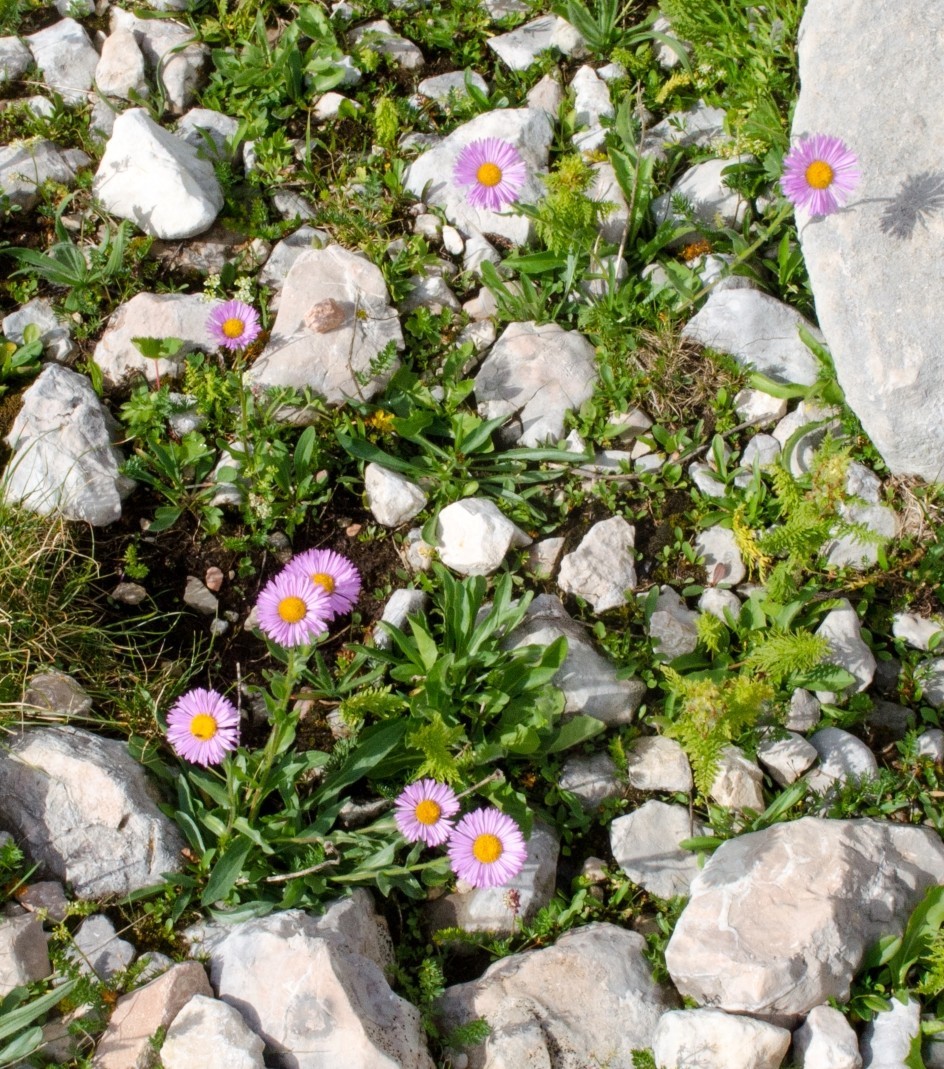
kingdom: Plantae
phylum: Tracheophyta
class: Magnoliopsida
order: Asterales
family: Asteraceae
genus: Erigeron
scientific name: Erigeron caucasicus
